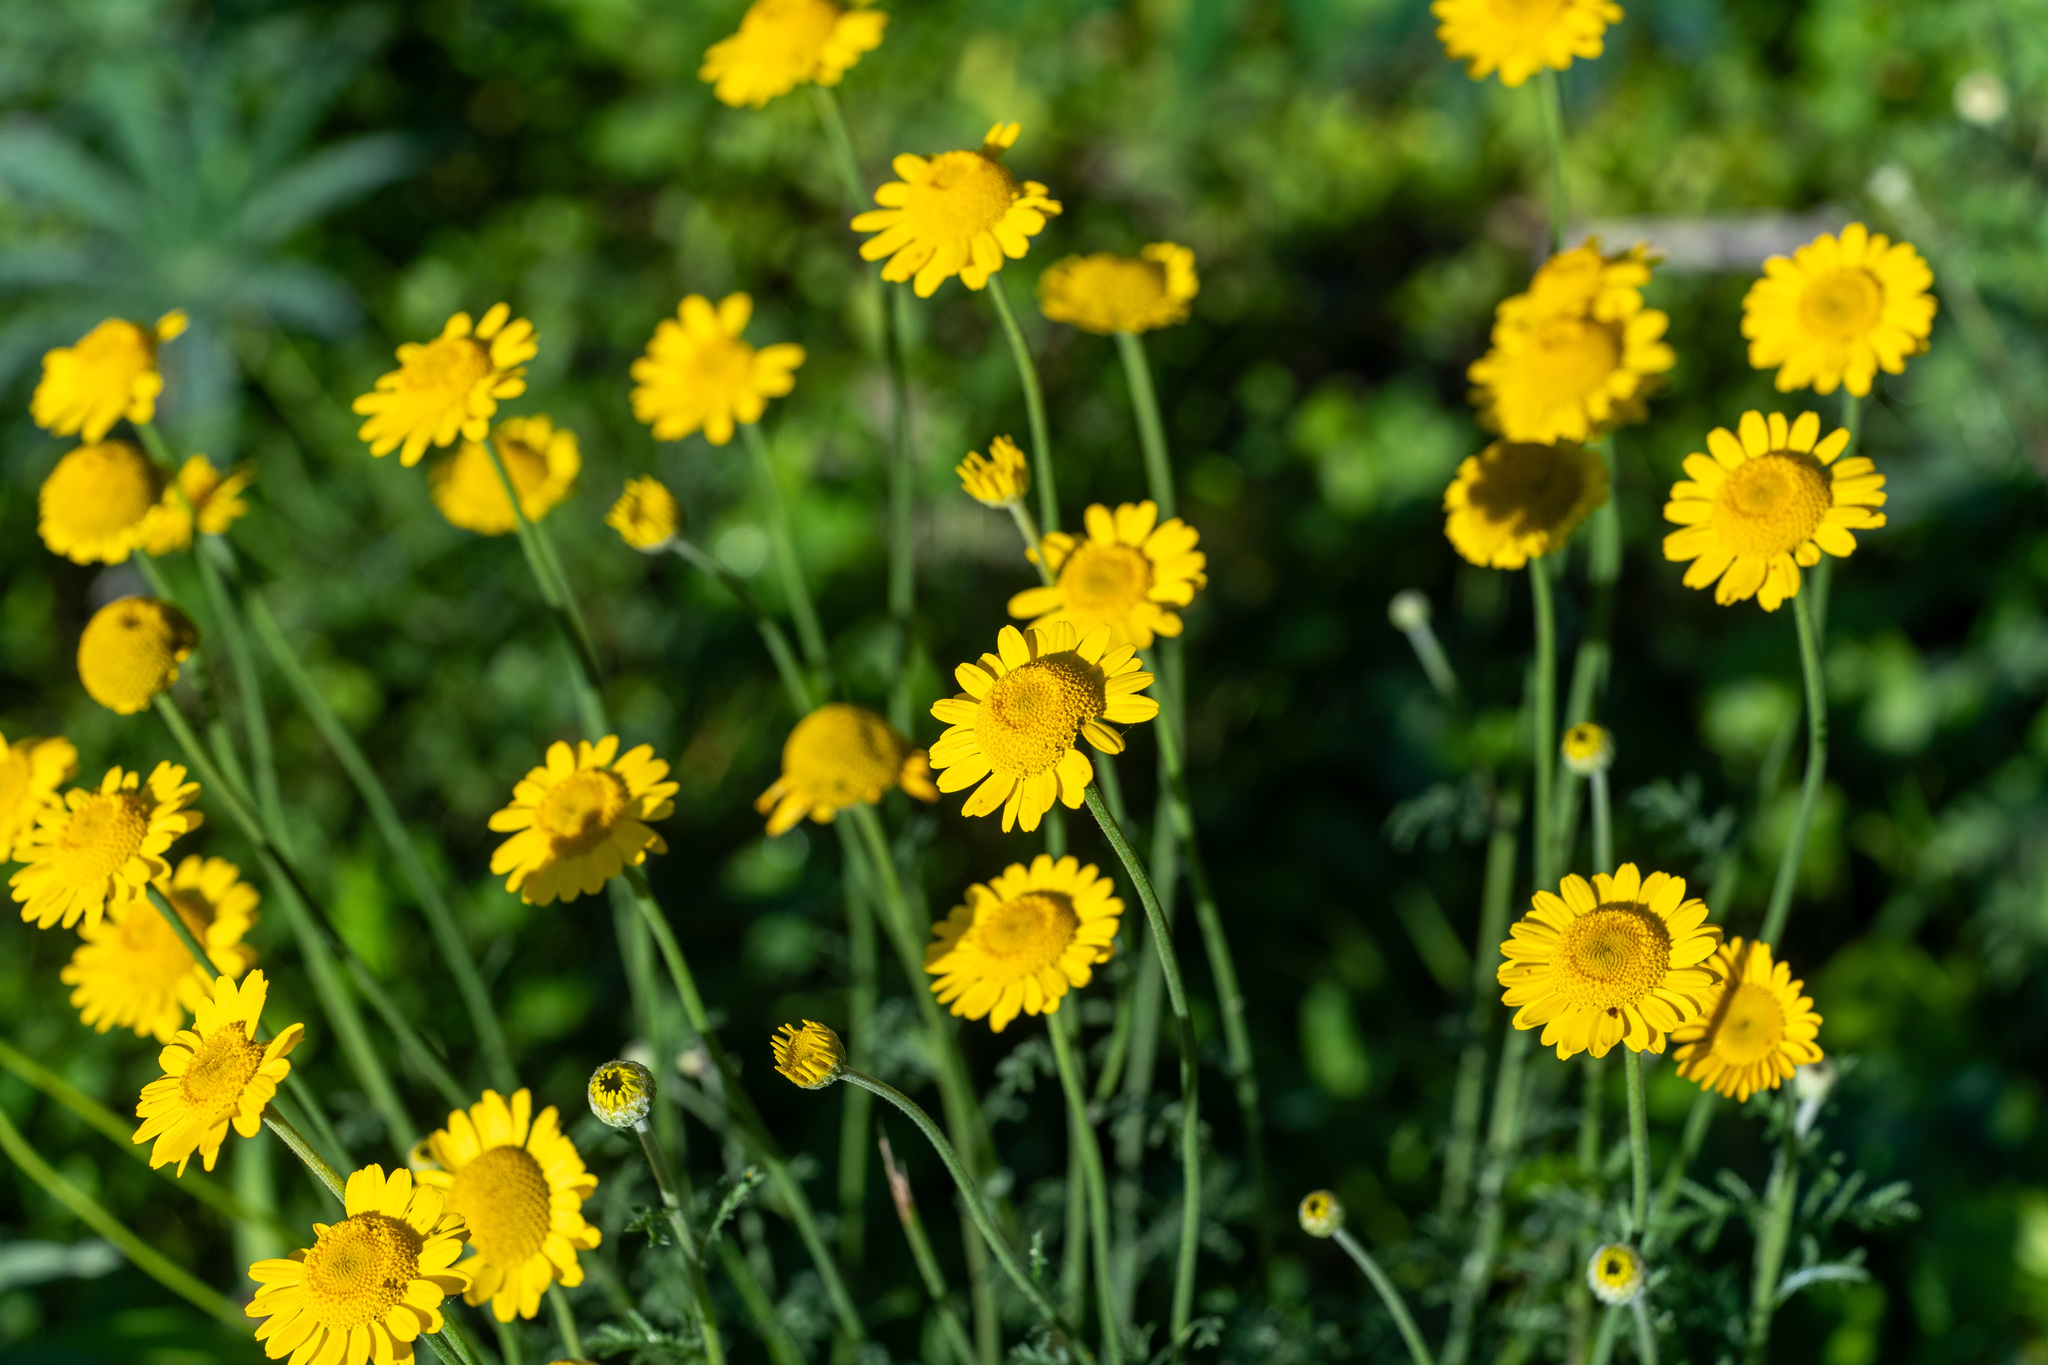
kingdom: Plantae
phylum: Tracheophyta
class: Magnoliopsida
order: Asterales
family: Asteraceae
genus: Cota
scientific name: Cota tinctoria
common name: Golden chamomile
